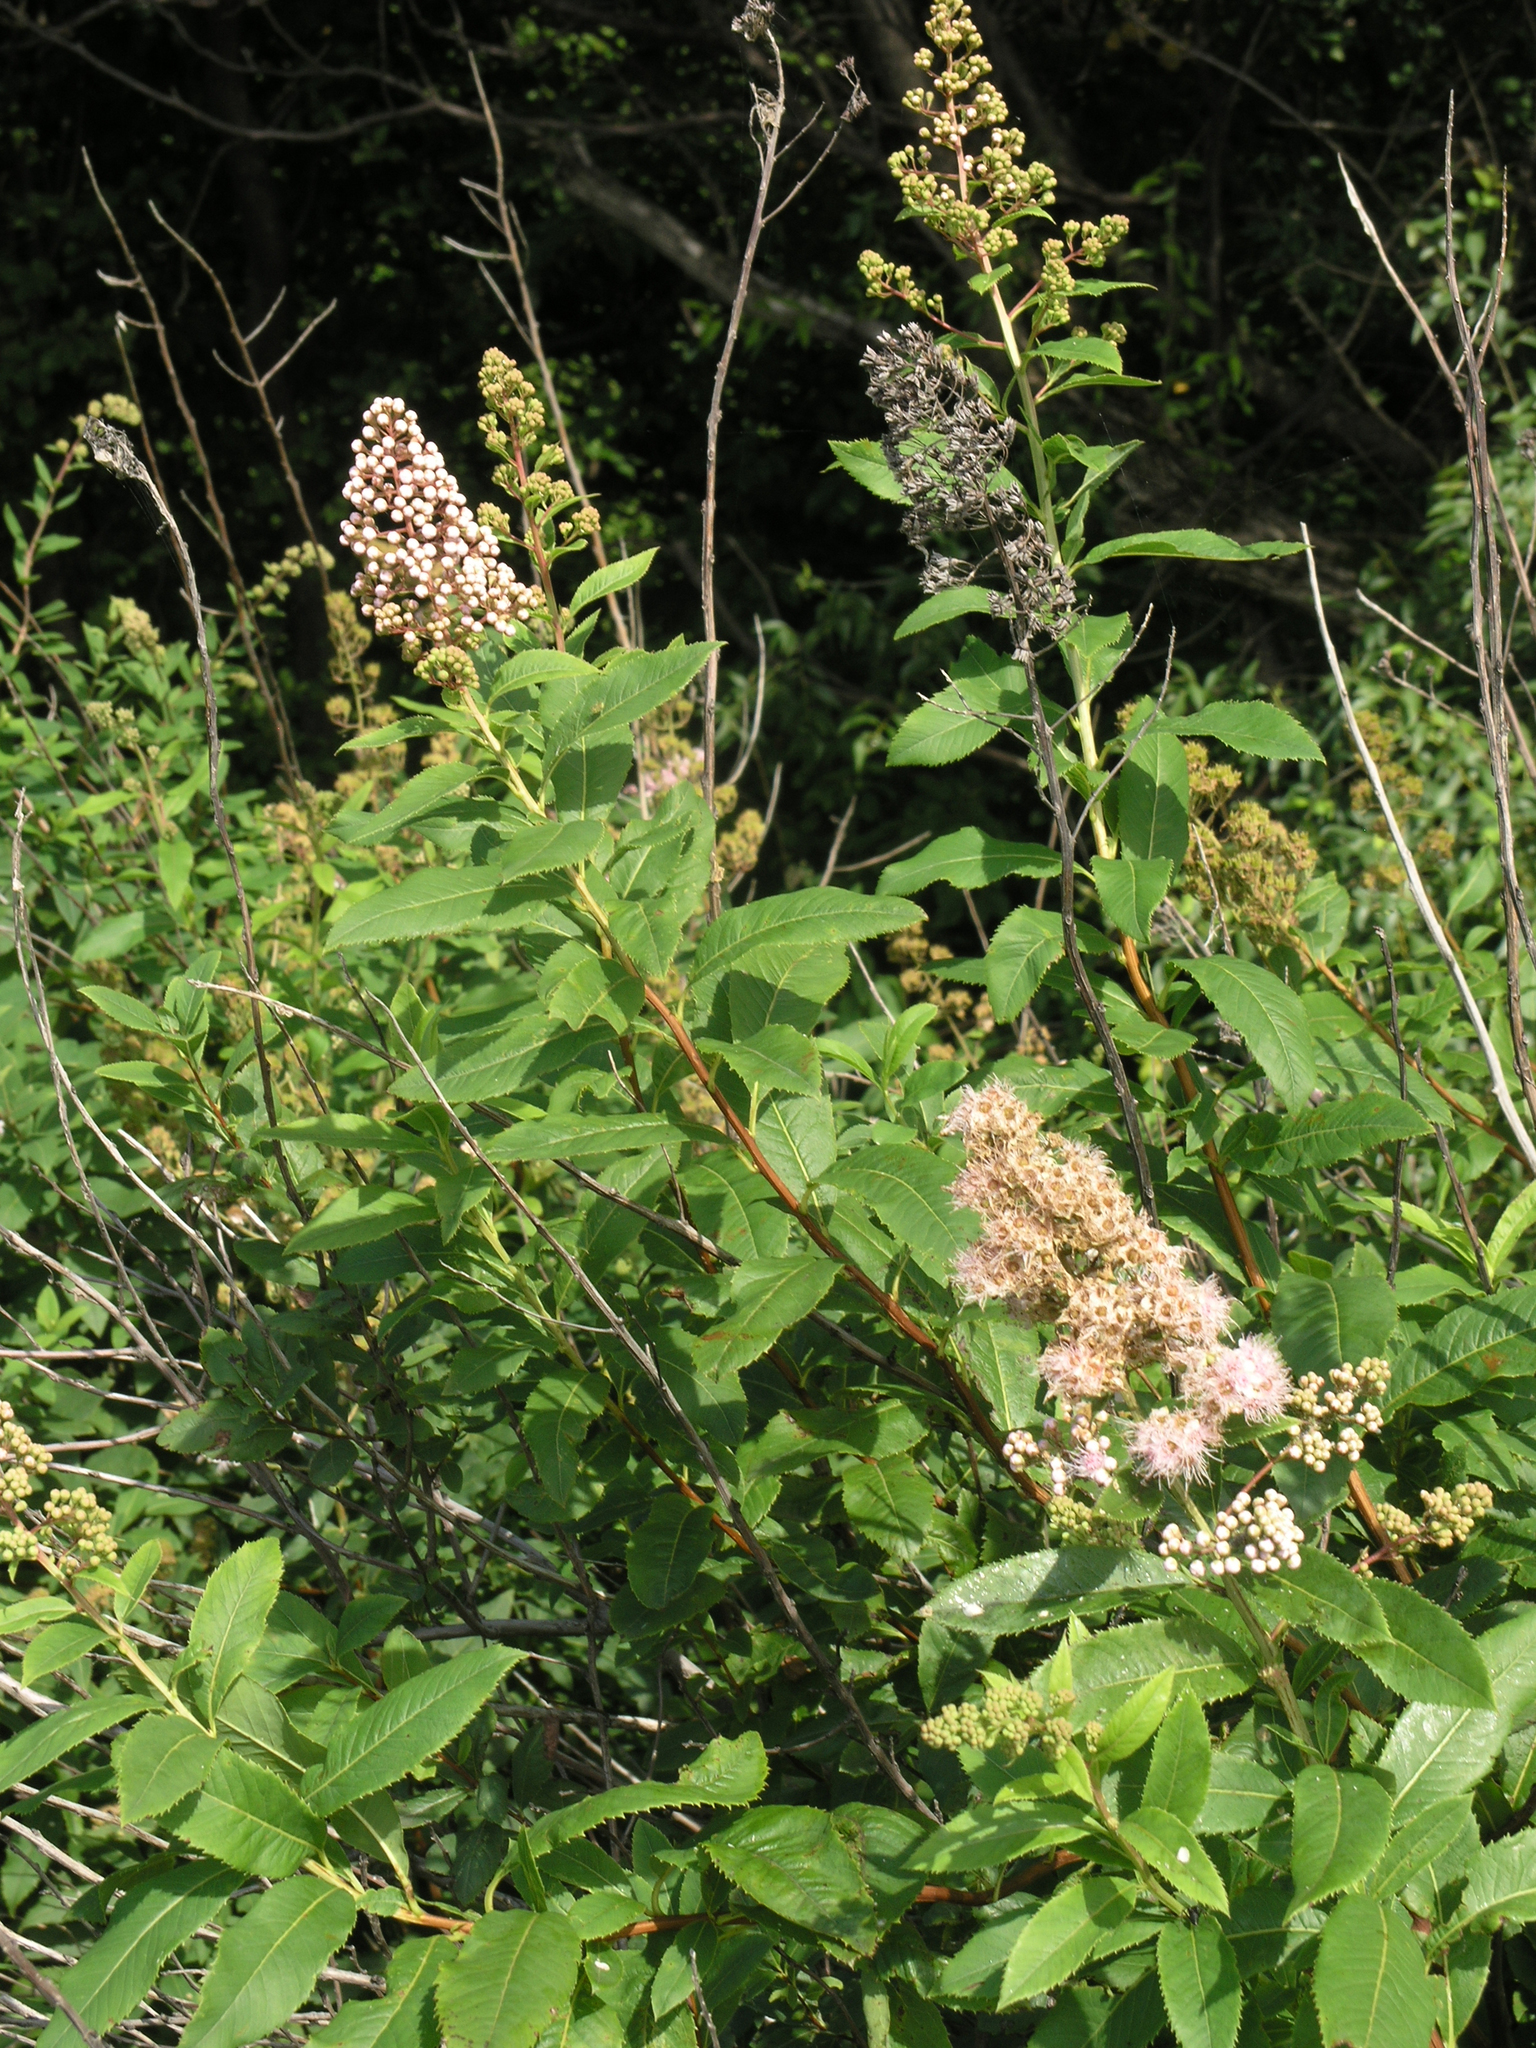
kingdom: Plantae
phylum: Tracheophyta
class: Magnoliopsida
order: Rosales
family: Rosaceae
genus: Spiraea
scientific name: Spiraea salicifolia
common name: Bridewort
